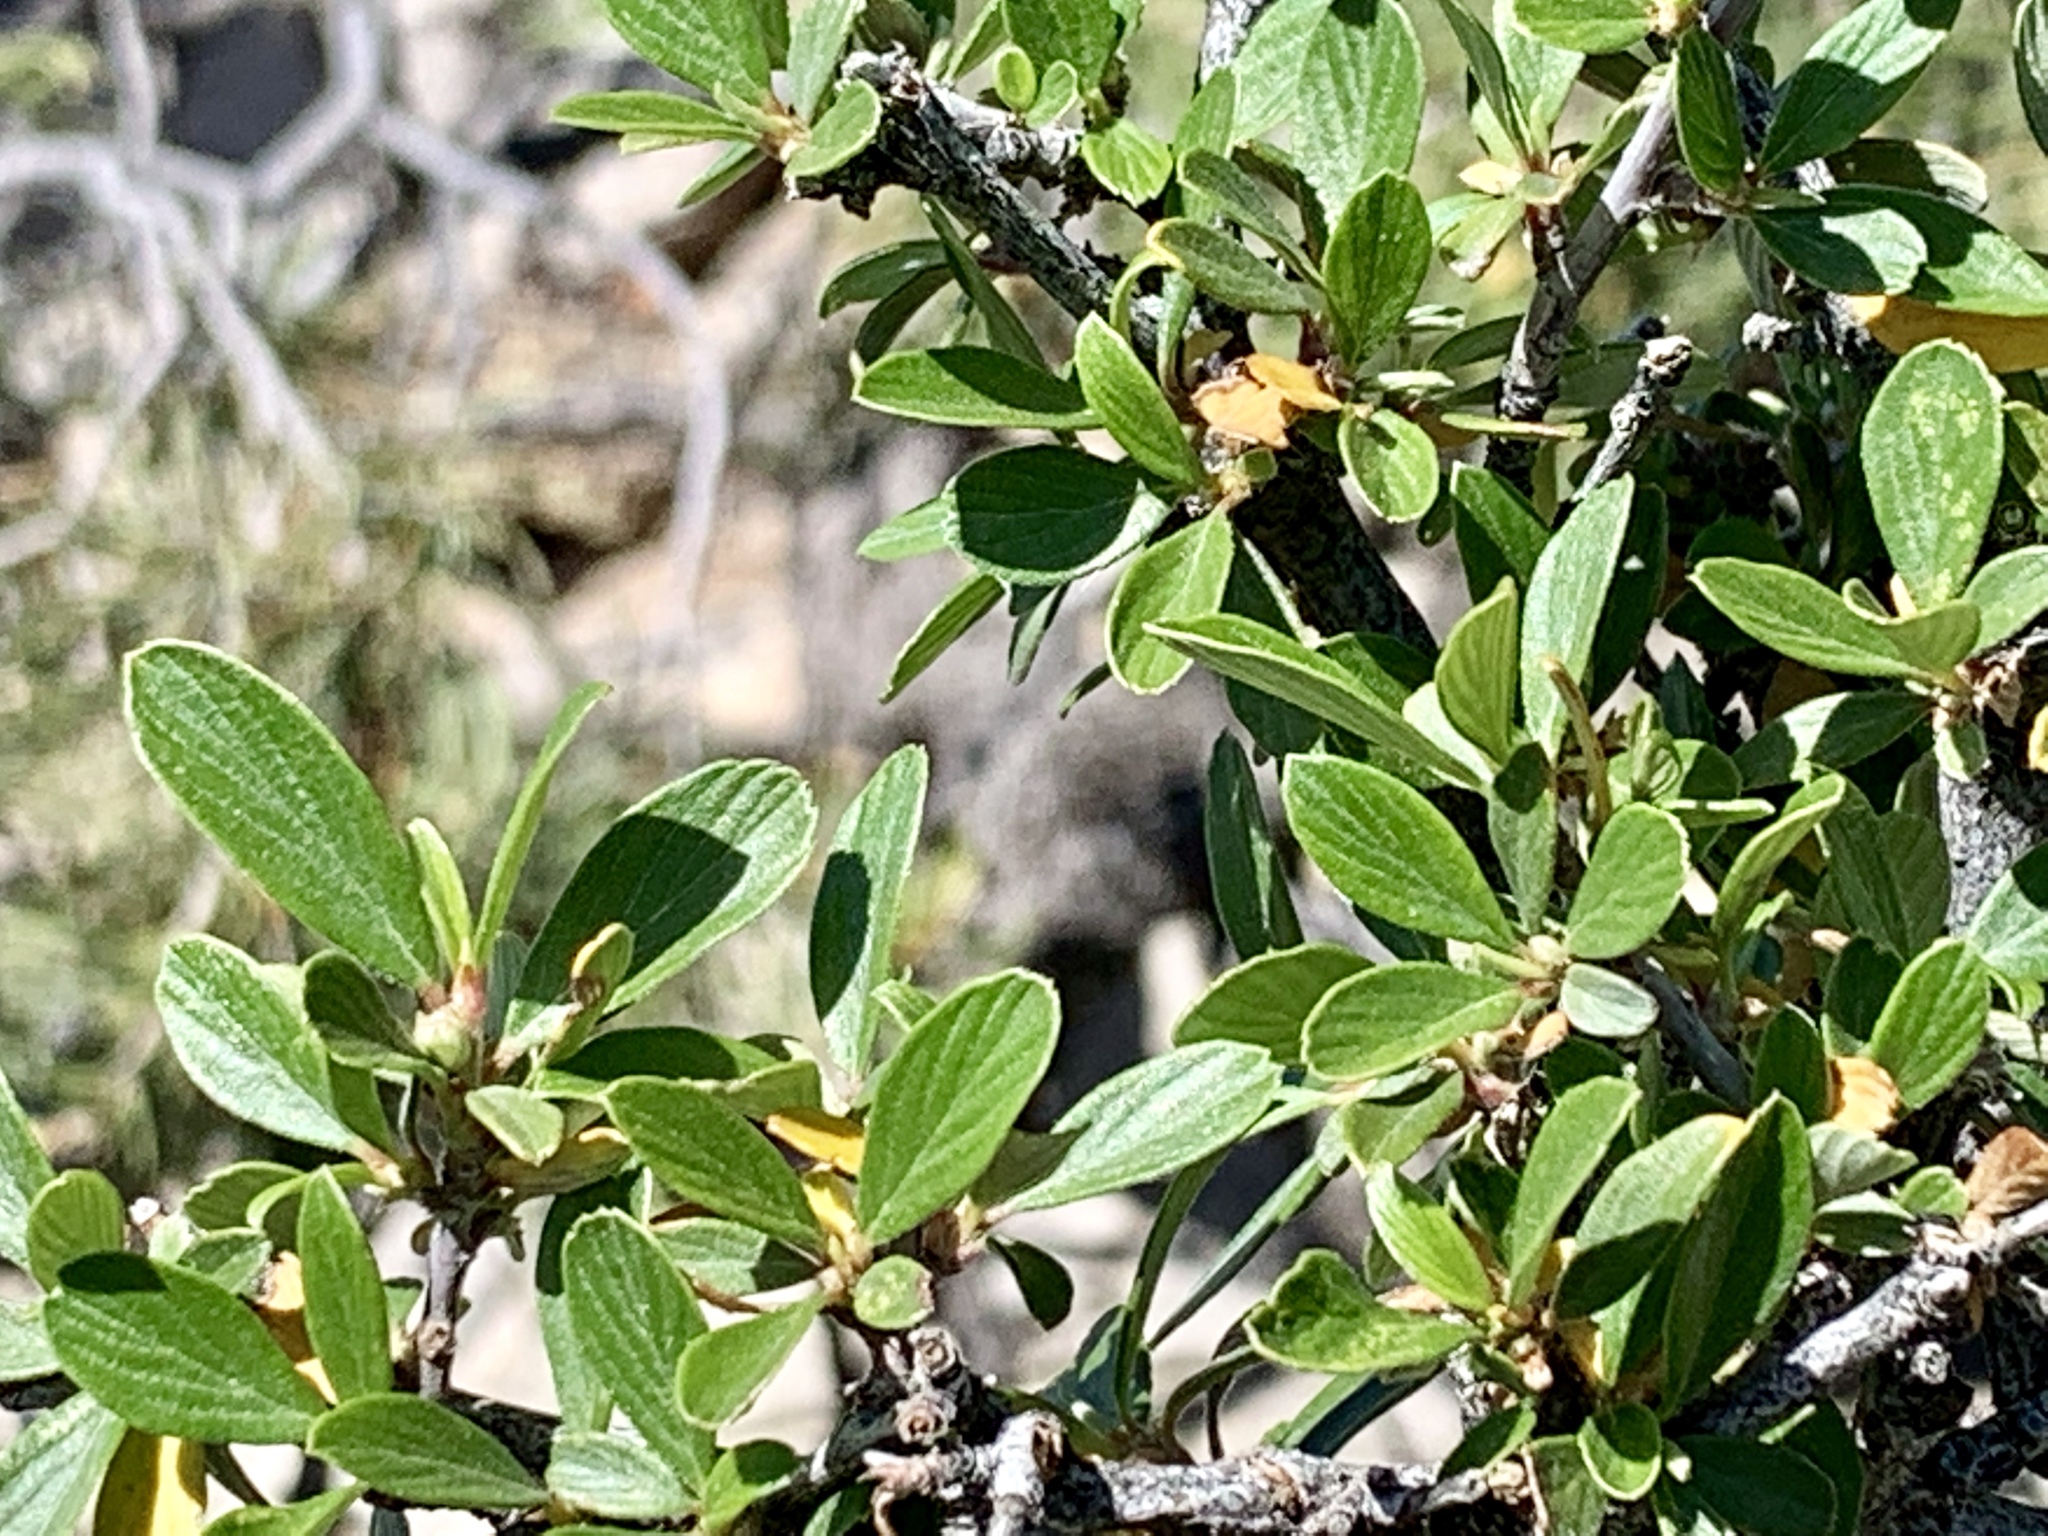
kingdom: Plantae
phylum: Tracheophyta
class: Magnoliopsida
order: Rosales
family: Rosaceae
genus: Cercocarpus
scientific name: Cercocarpus breviflorus
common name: Wright's mountain-mahogany
